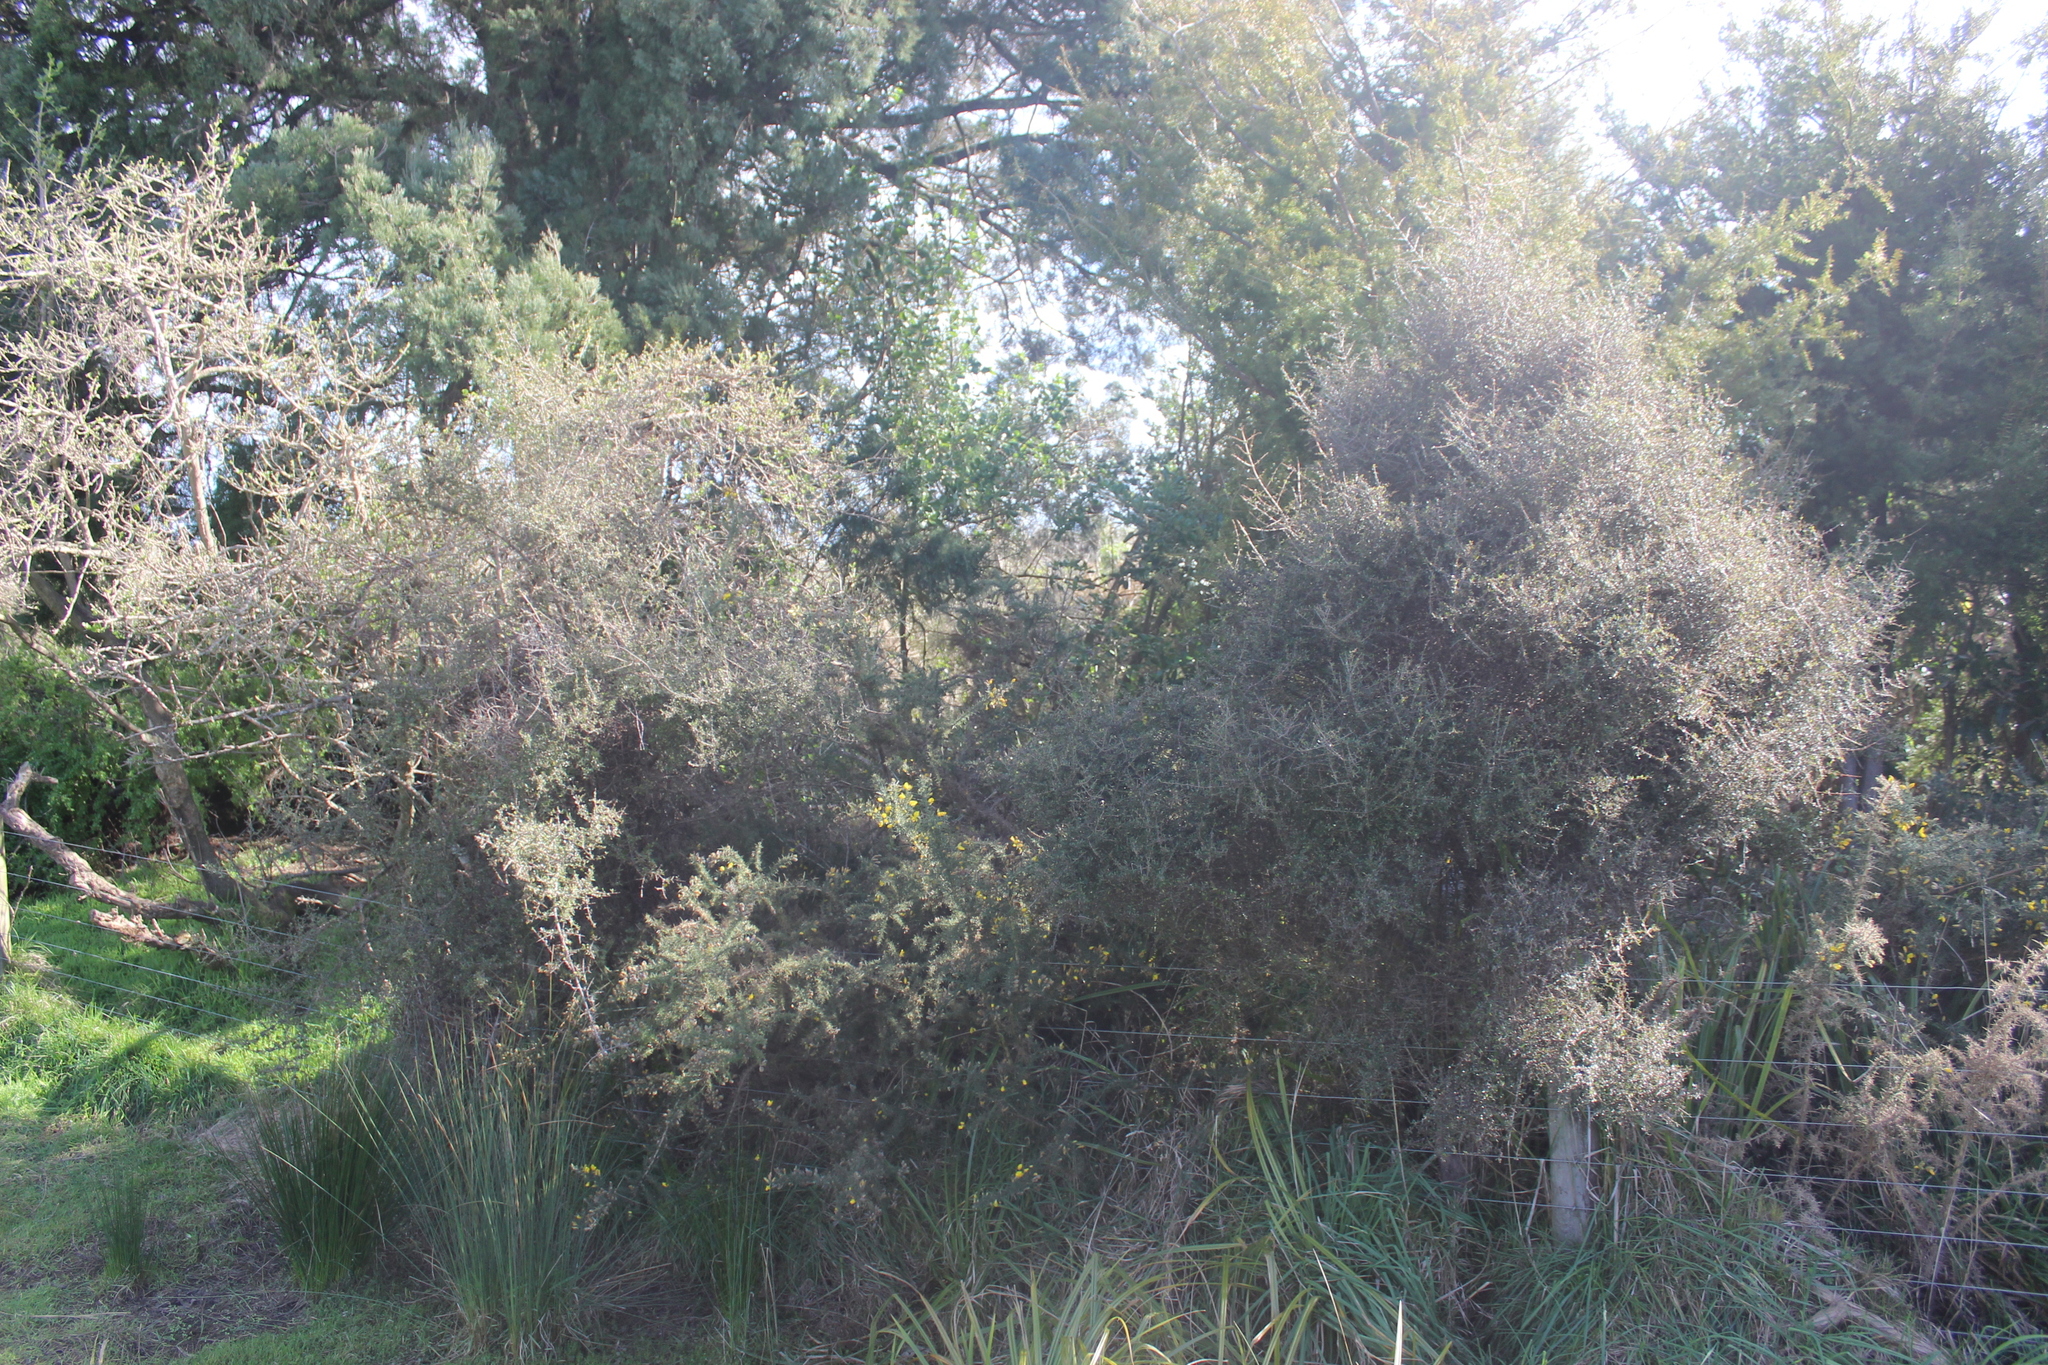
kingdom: Plantae
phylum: Tracheophyta
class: Magnoliopsida
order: Gentianales
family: Rubiaceae
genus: Coprosma
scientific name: Coprosma propinqua
